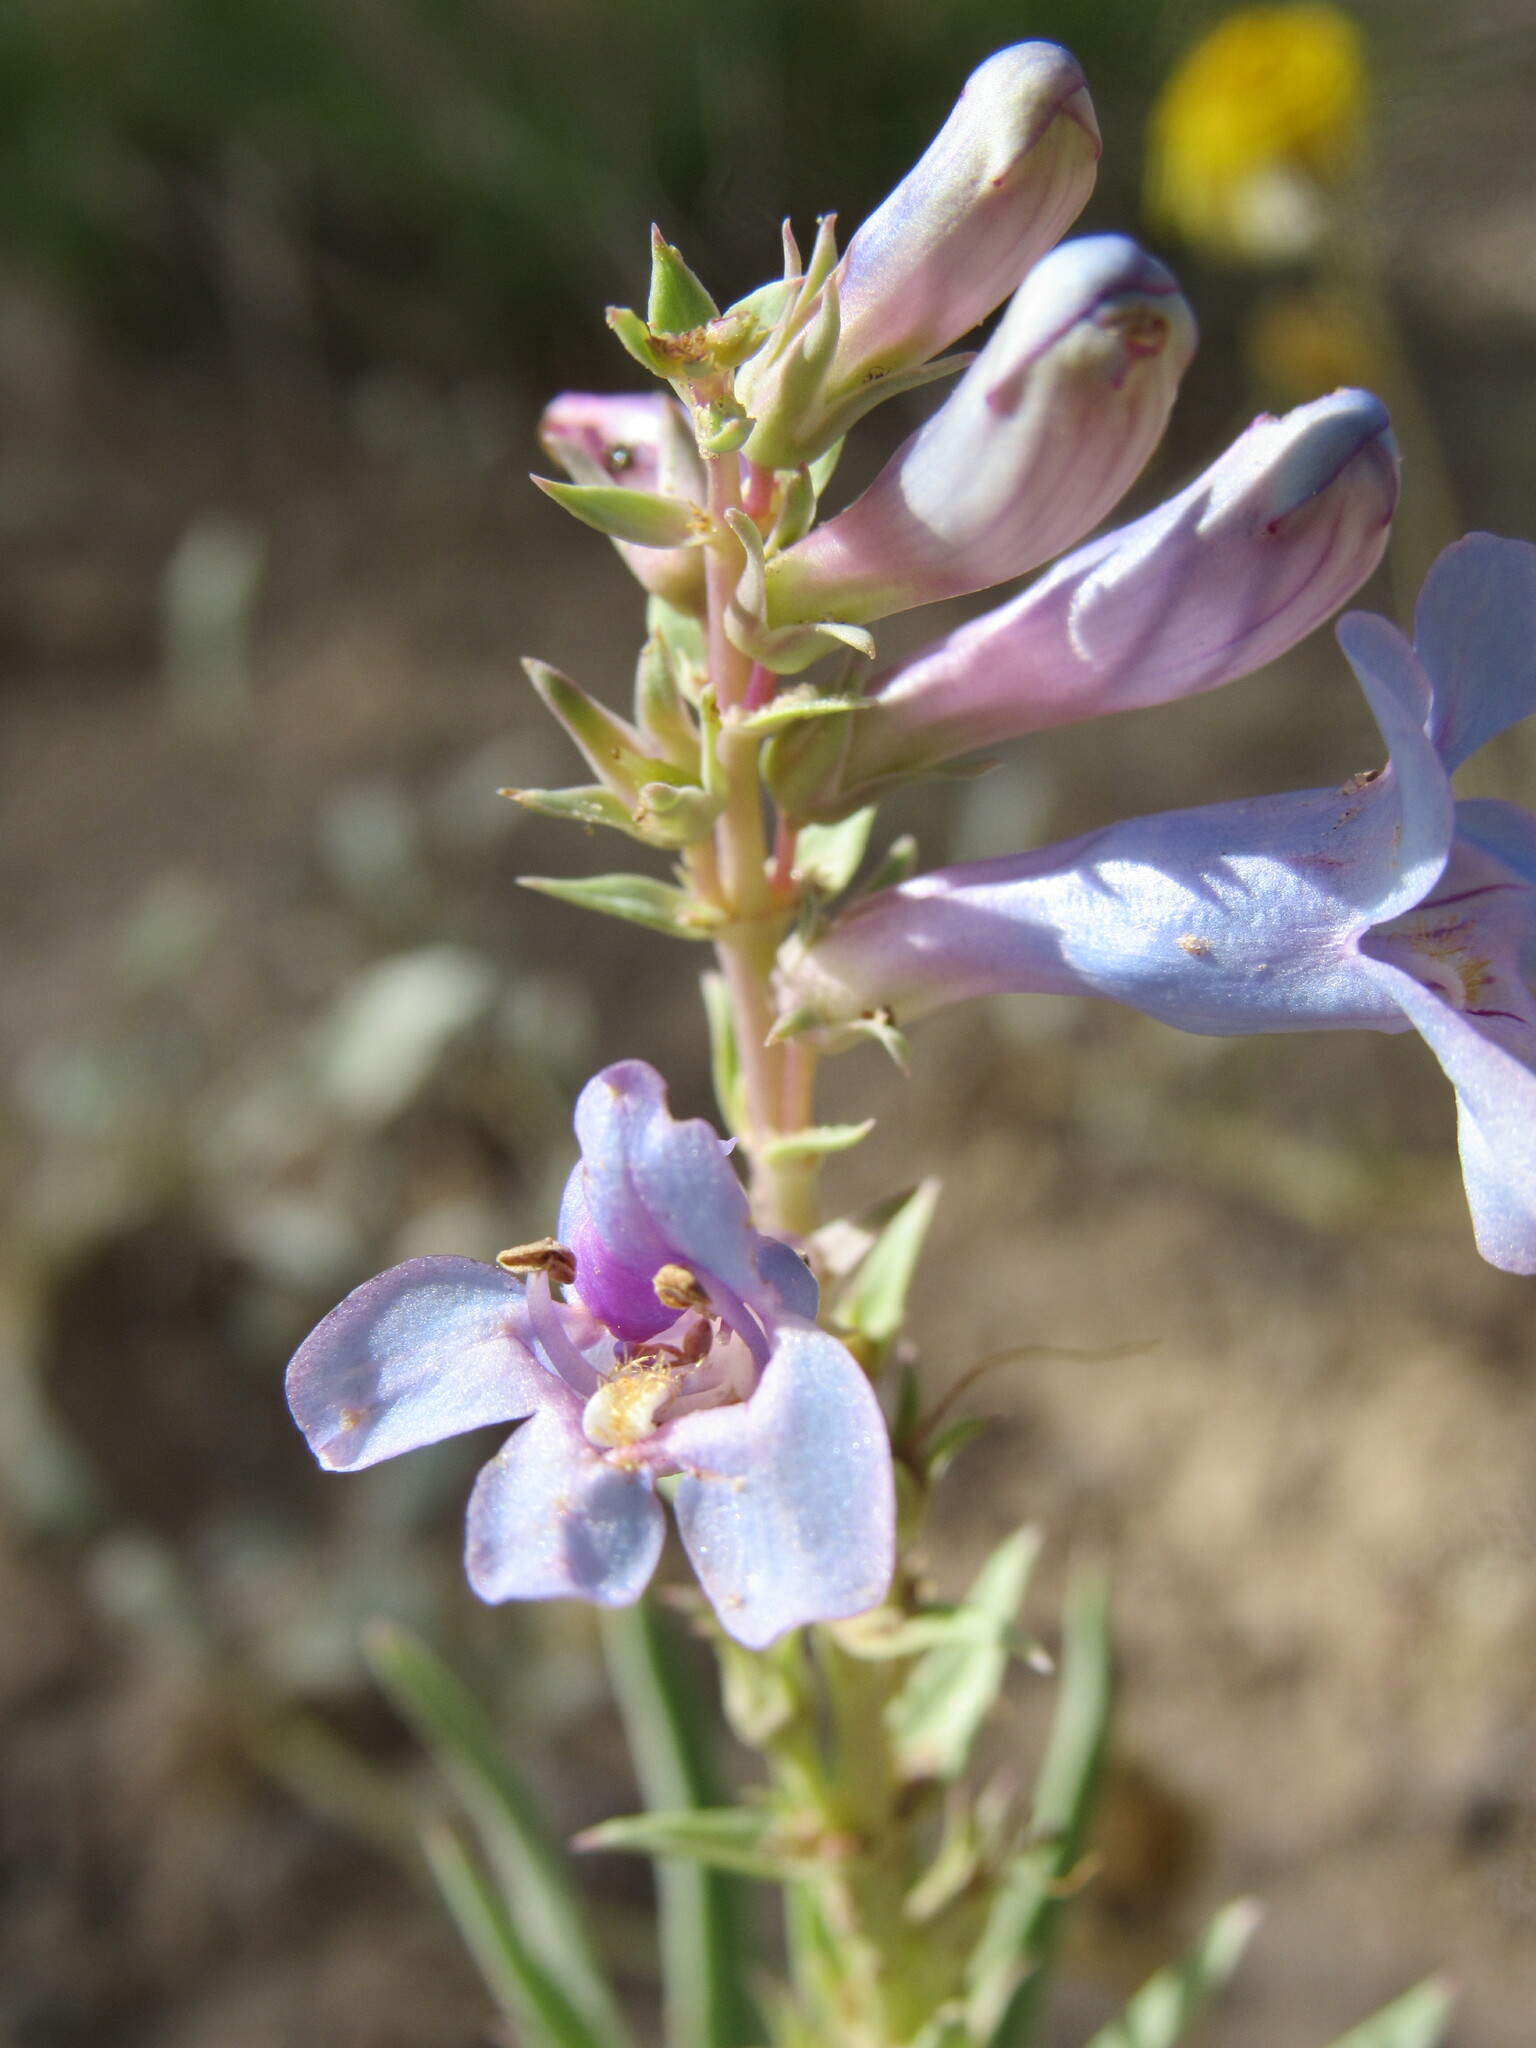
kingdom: Plantae
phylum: Tracheophyta
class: Magnoliopsida
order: Lamiales
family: Plantaginaceae
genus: Penstemon
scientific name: Penstemon angustifolius
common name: Narrow beardtongue
